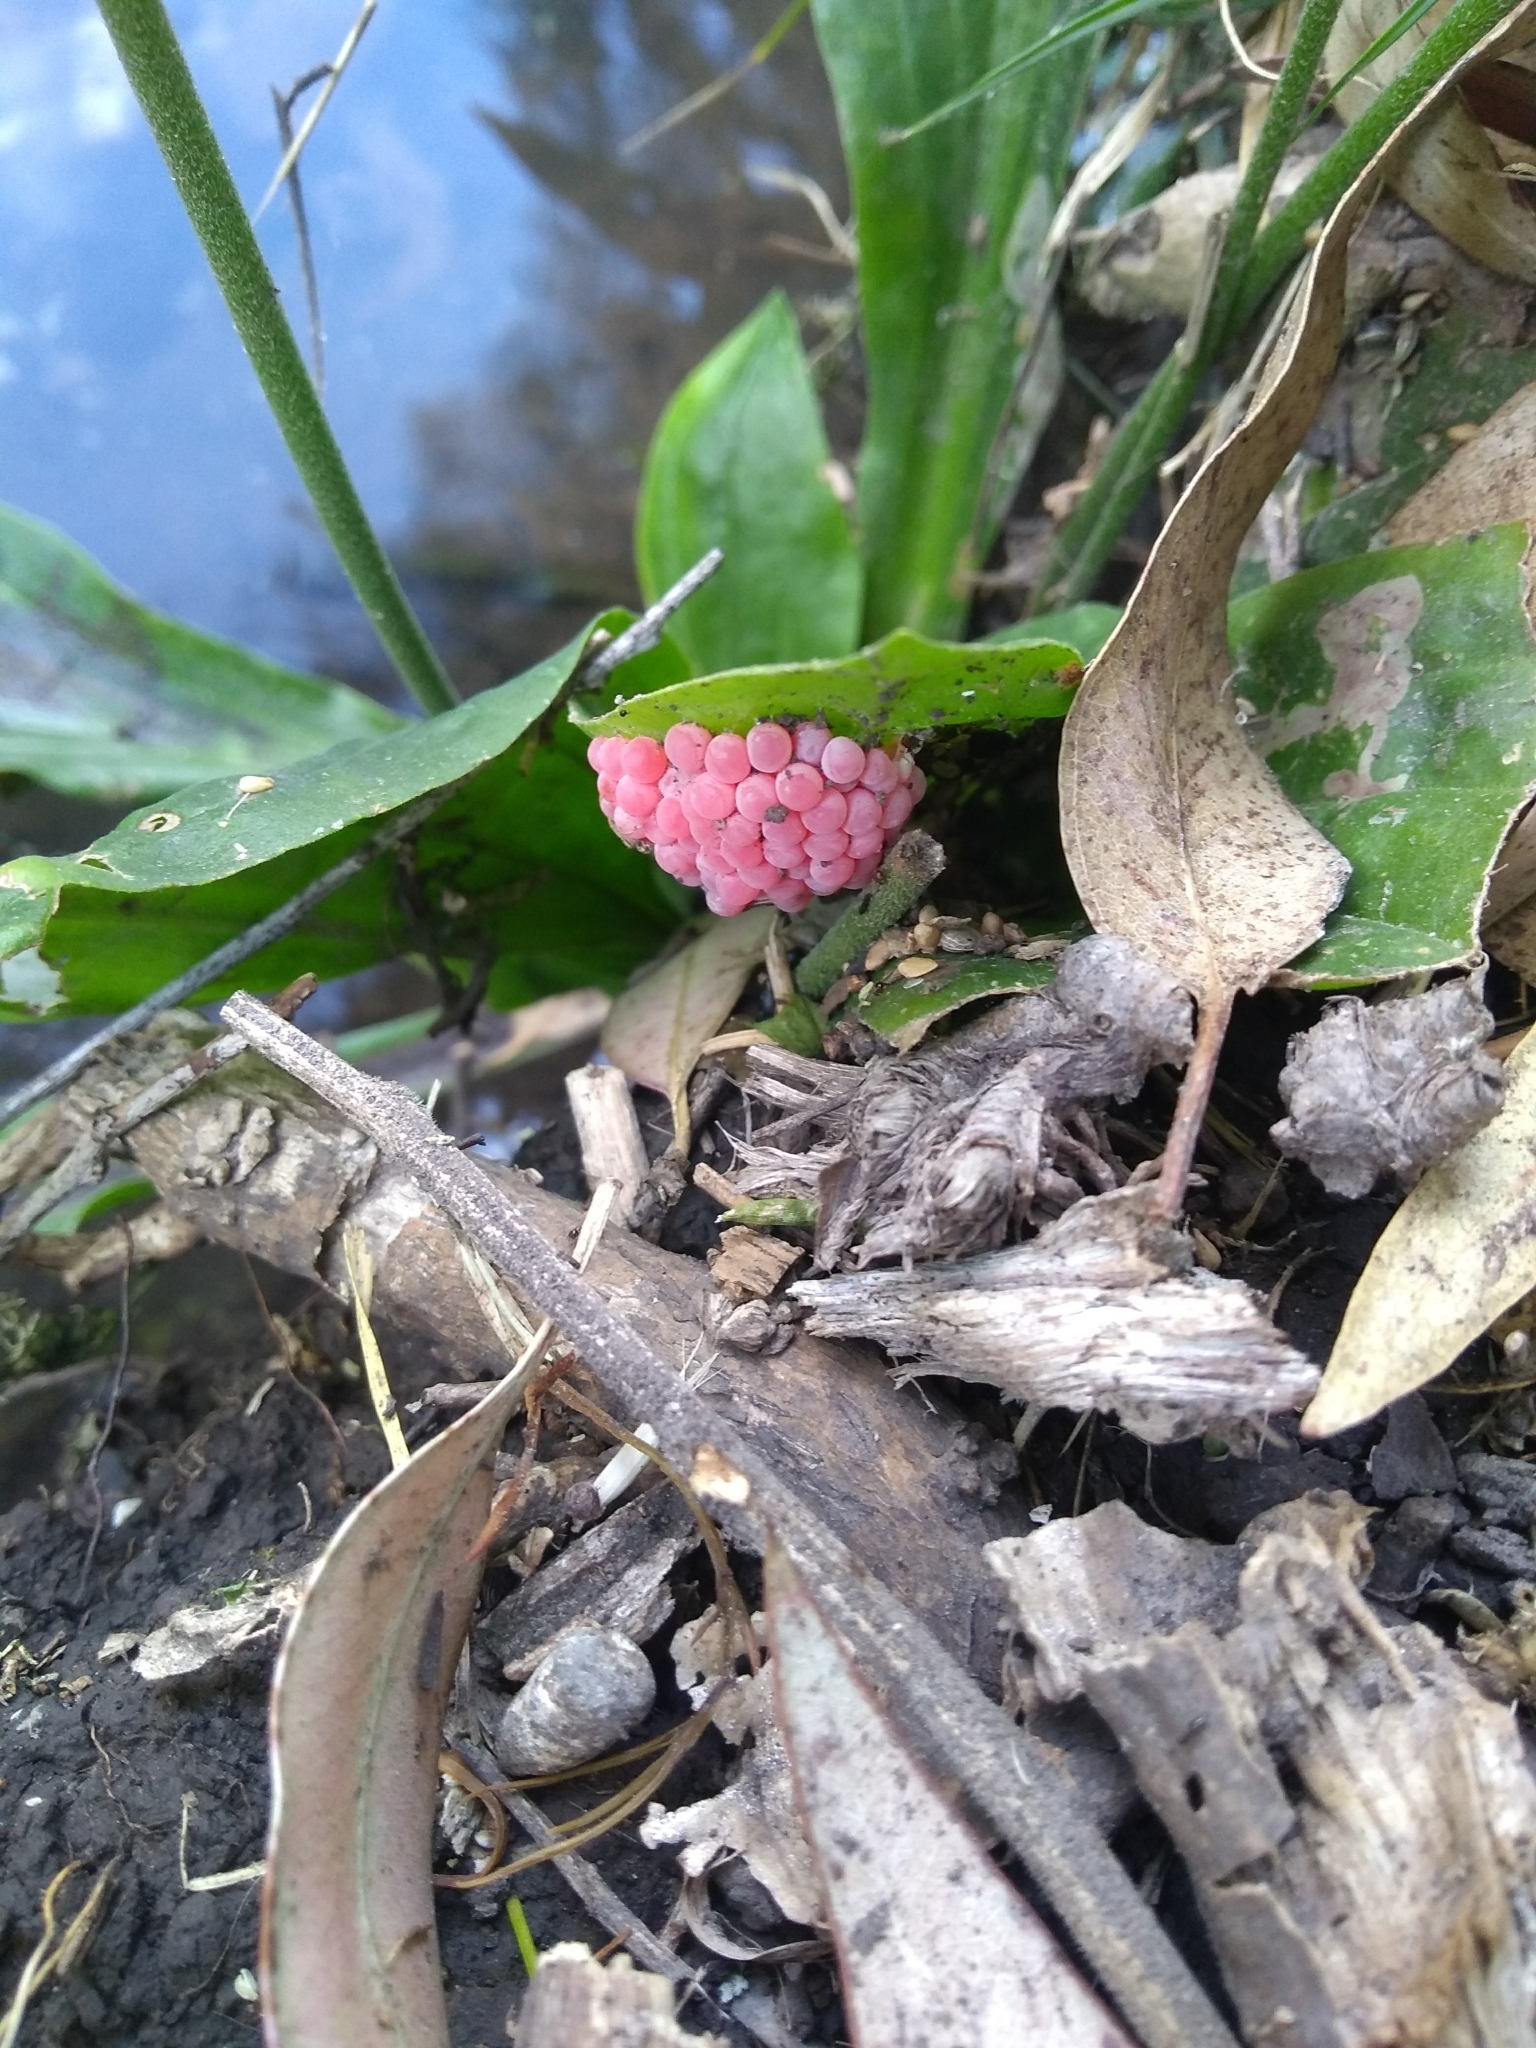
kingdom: Animalia
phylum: Mollusca
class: Gastropoda
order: Architaenioglossa
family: Ampullariidae
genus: Pomacea
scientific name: Pomacea canaliculata
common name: Channeled applesnail
